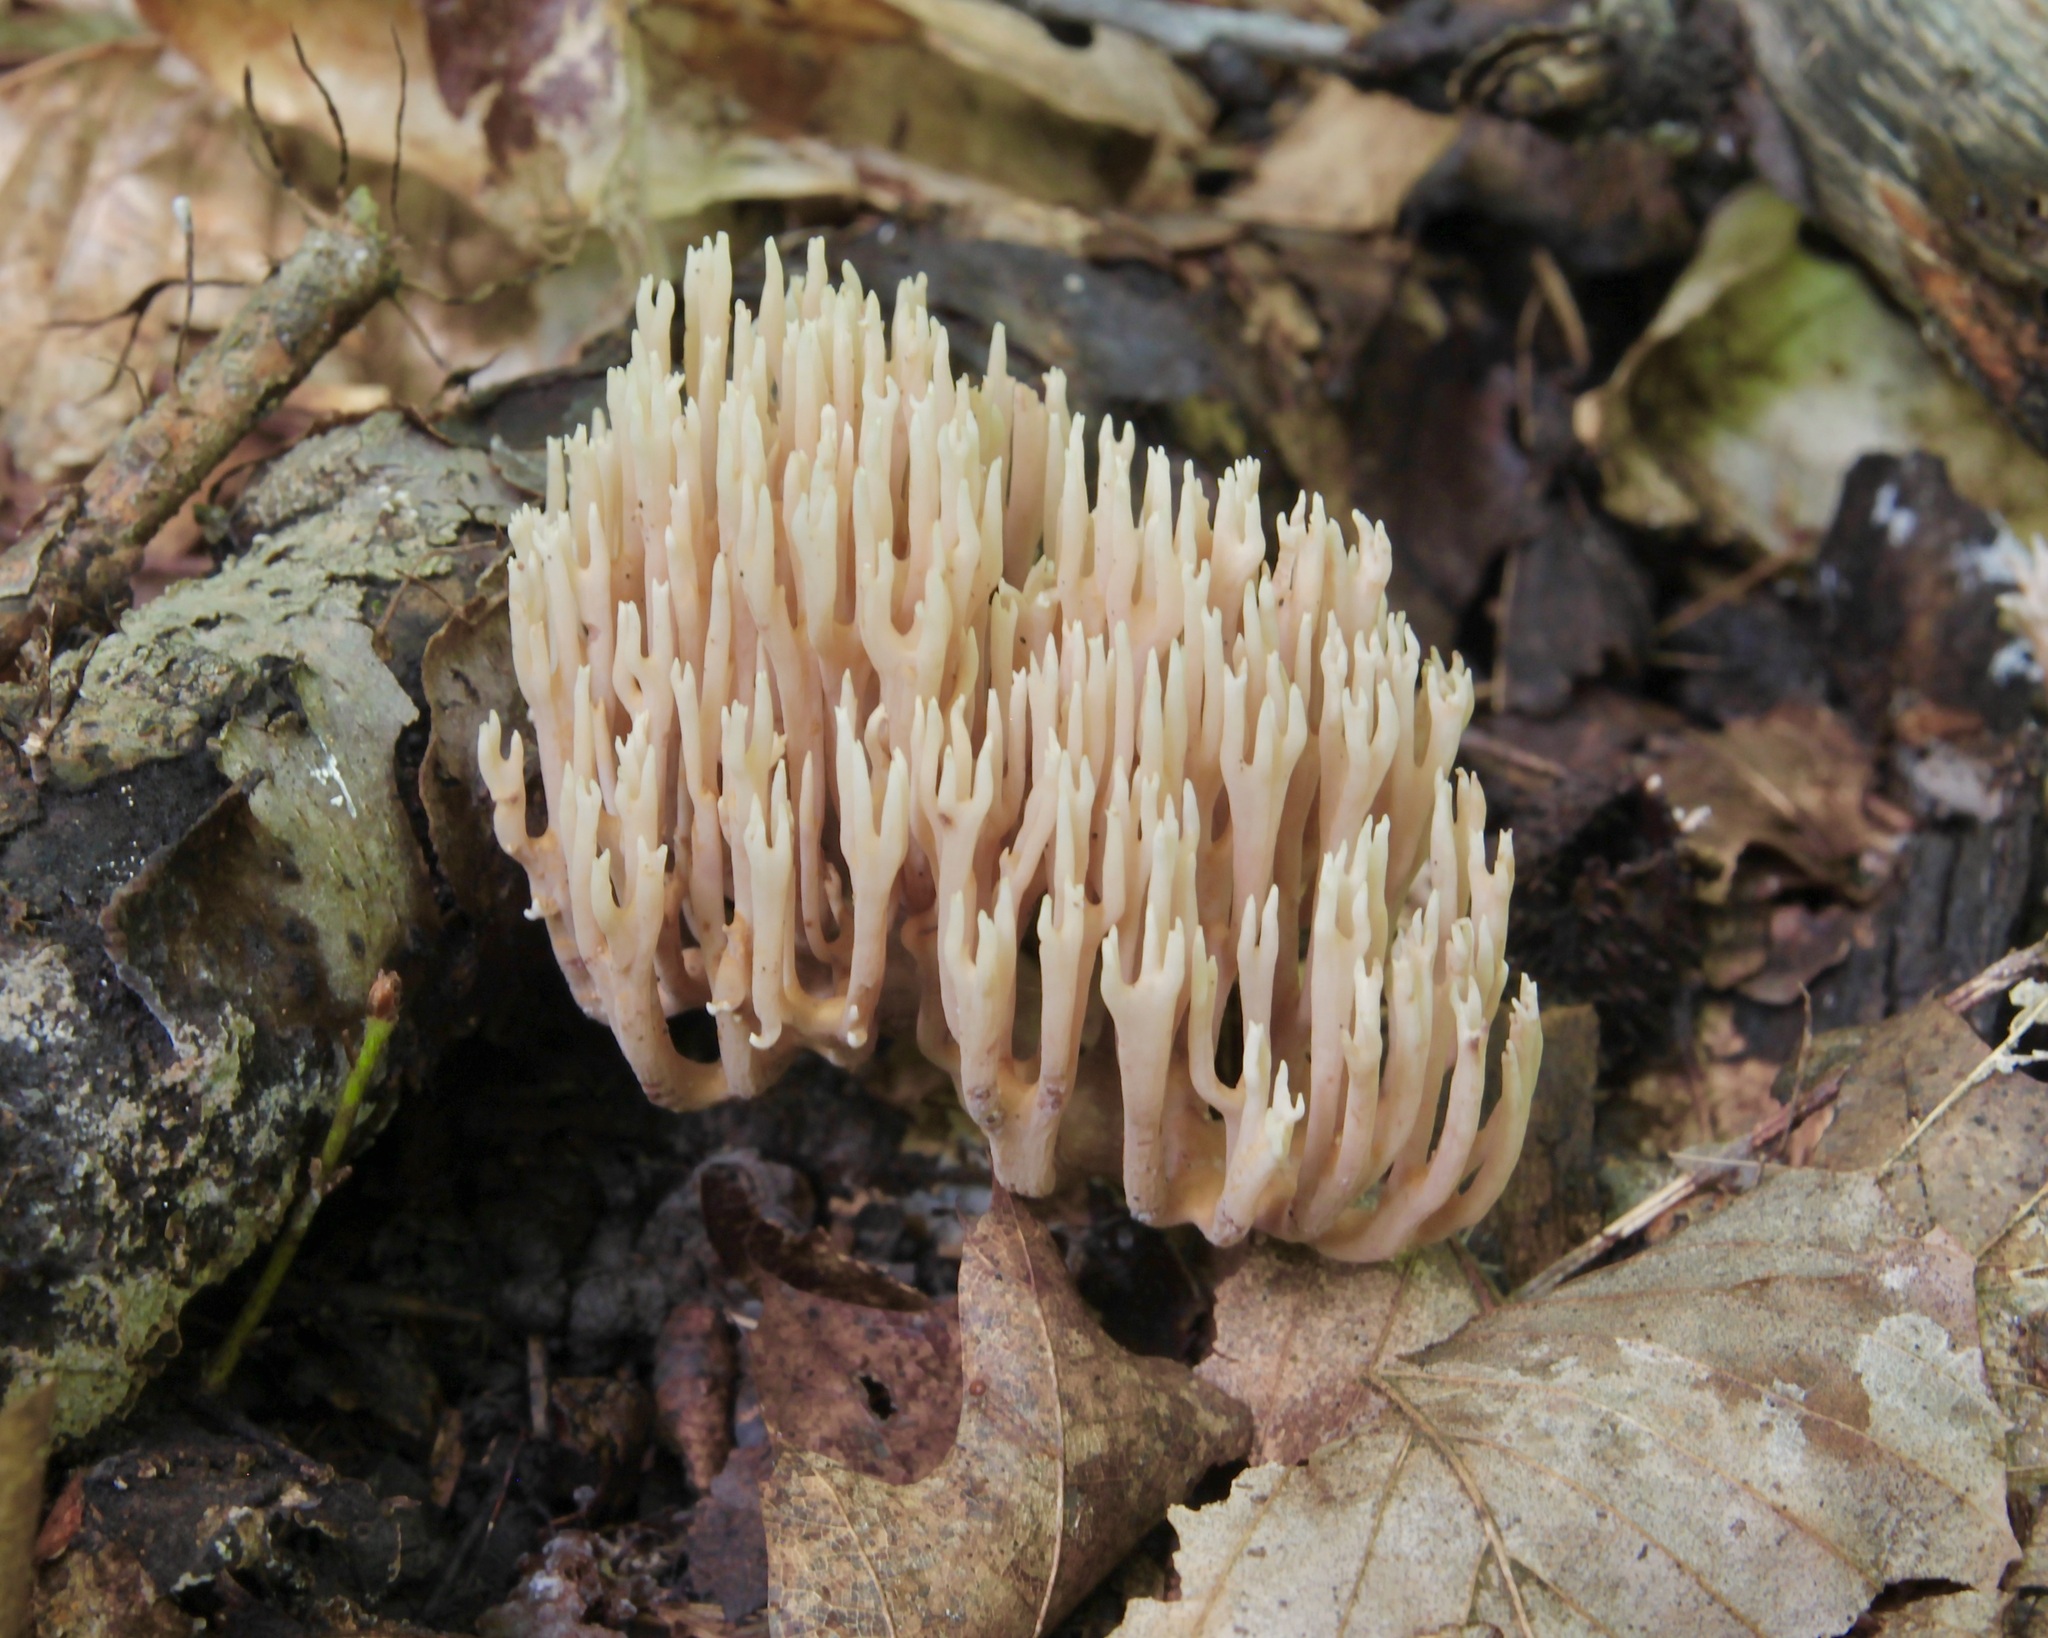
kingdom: Fungi
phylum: Basidiomycota
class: Agaricomycetes
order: Gomphales
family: Gomphaceae
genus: Ramaria
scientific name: Ramaria stricta
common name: Upright coral
